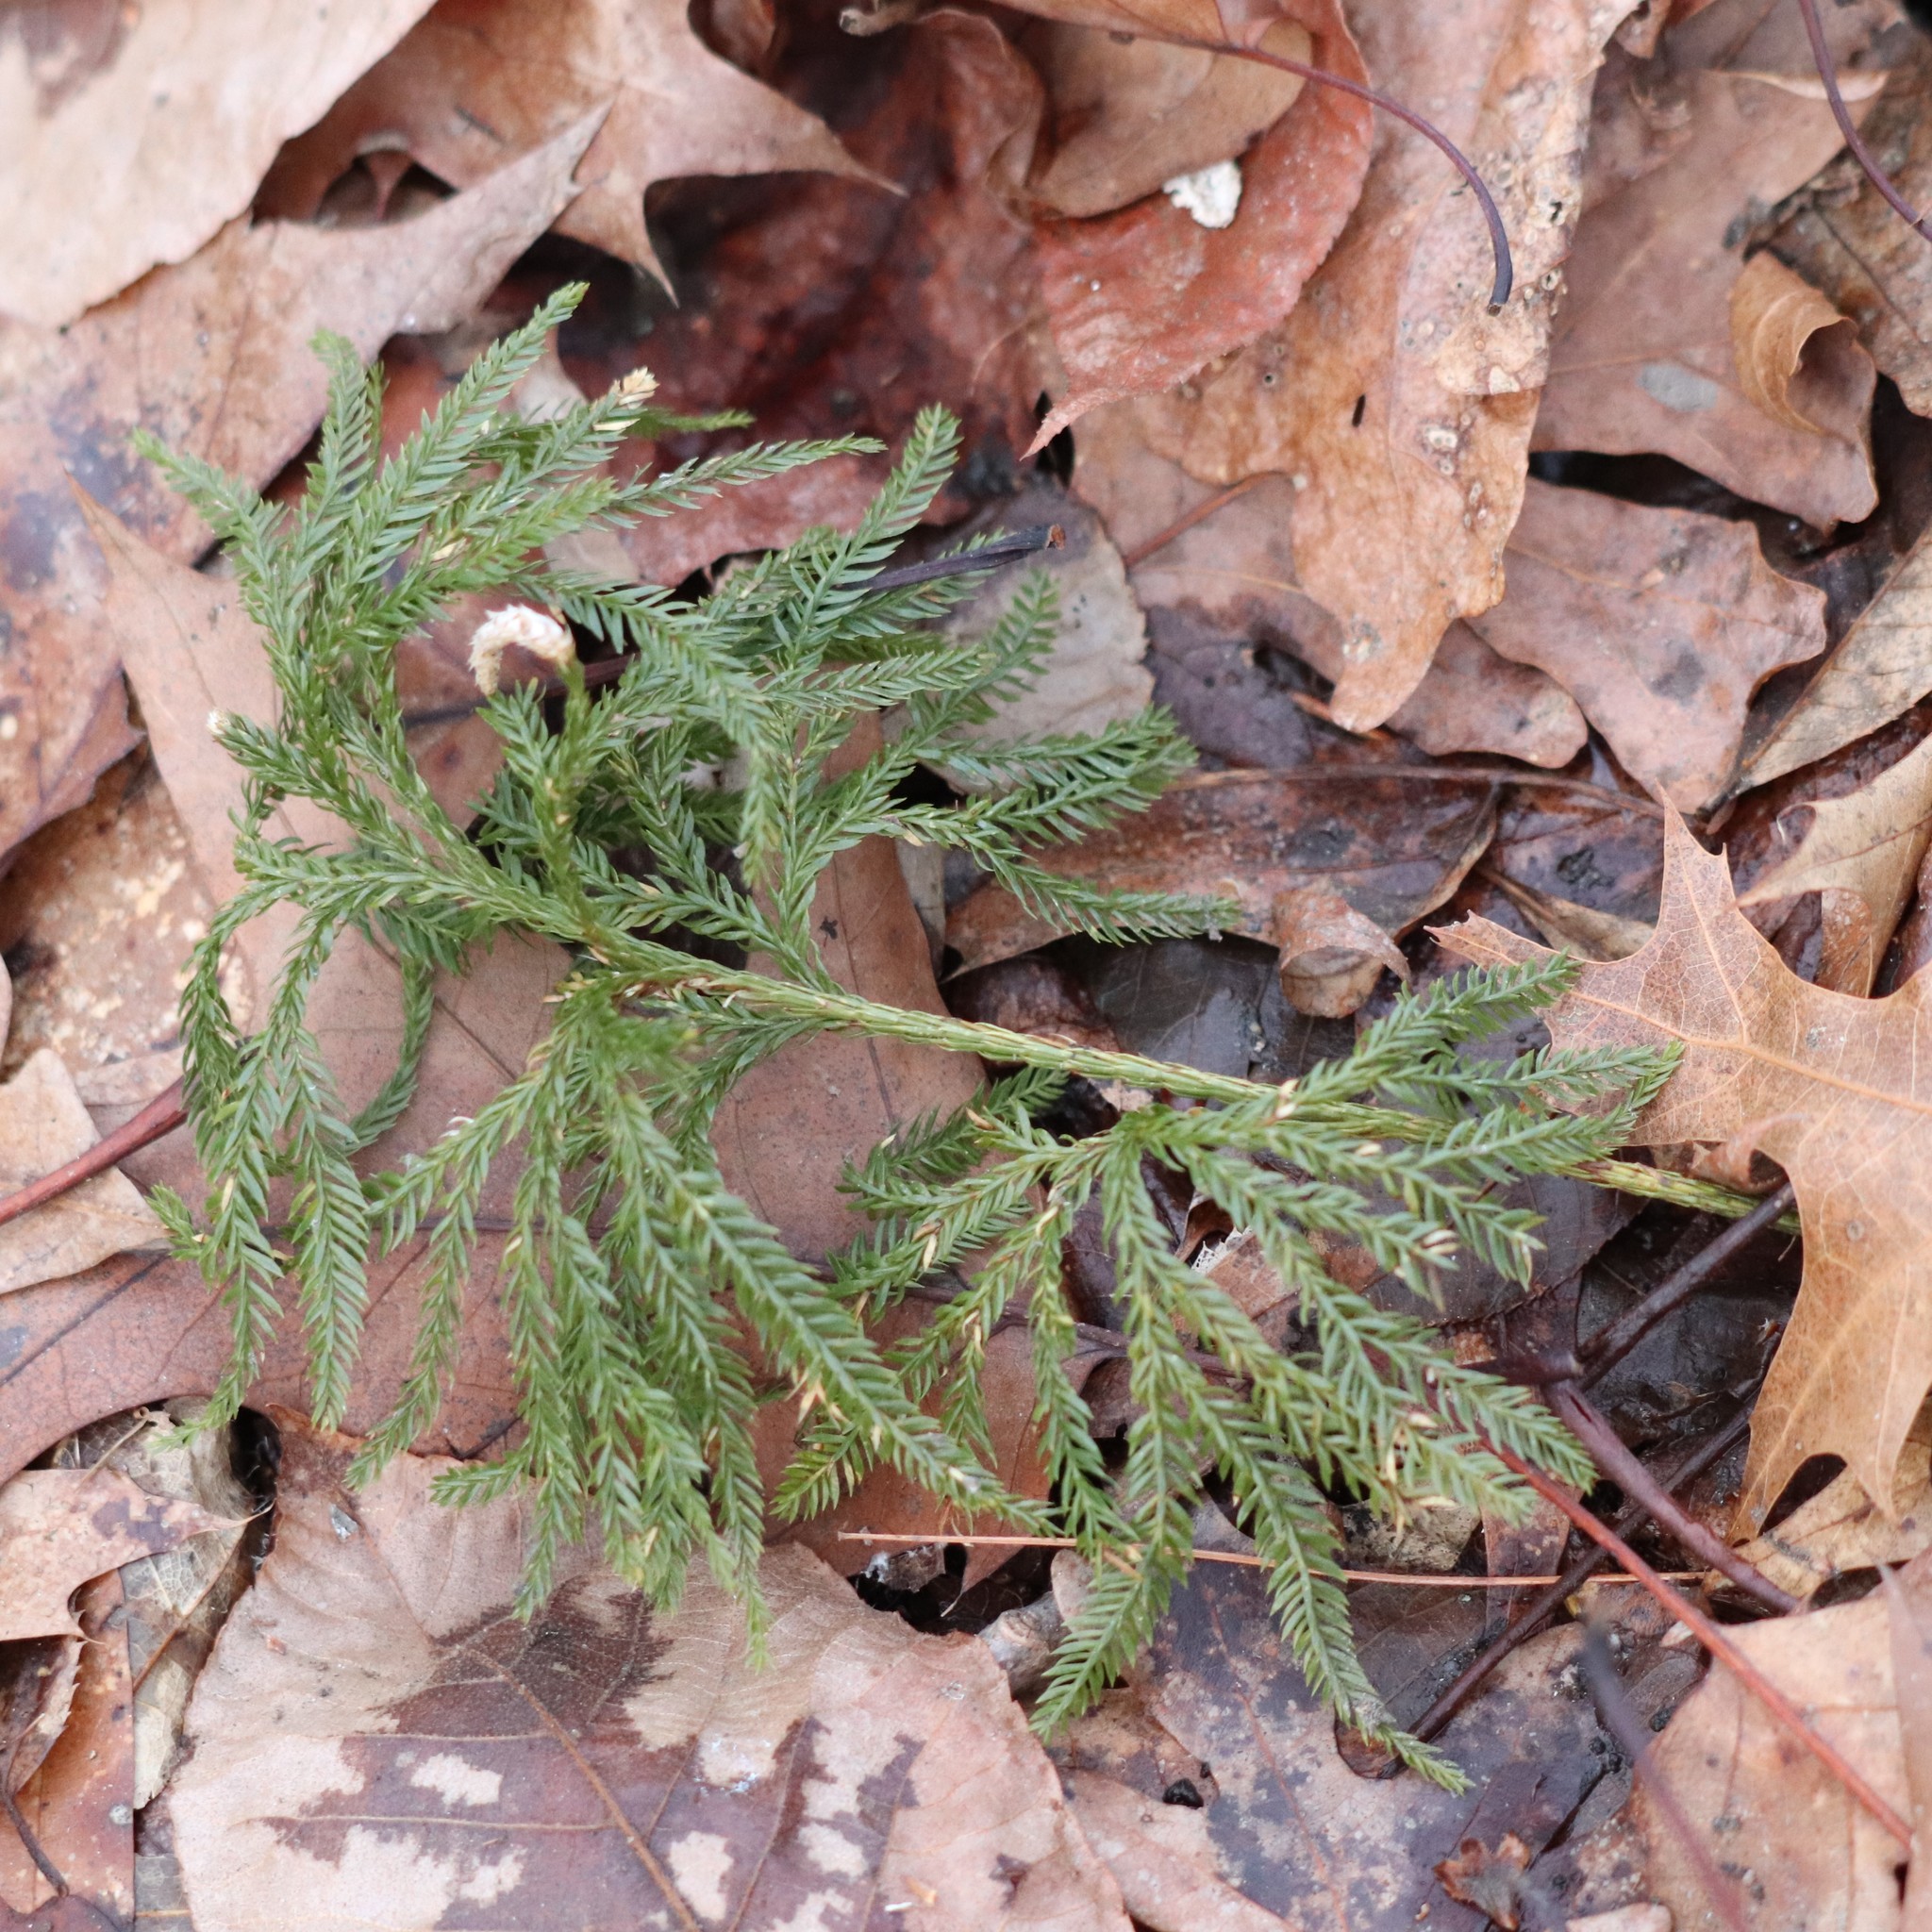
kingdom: Plantae
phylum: Tracheophyta
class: Lycopodiopsida
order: Lycopodiales
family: Lycopodiaceae
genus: Dendrolycopodium
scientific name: Dendrolycopodium obscurum
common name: Common ground-pine
